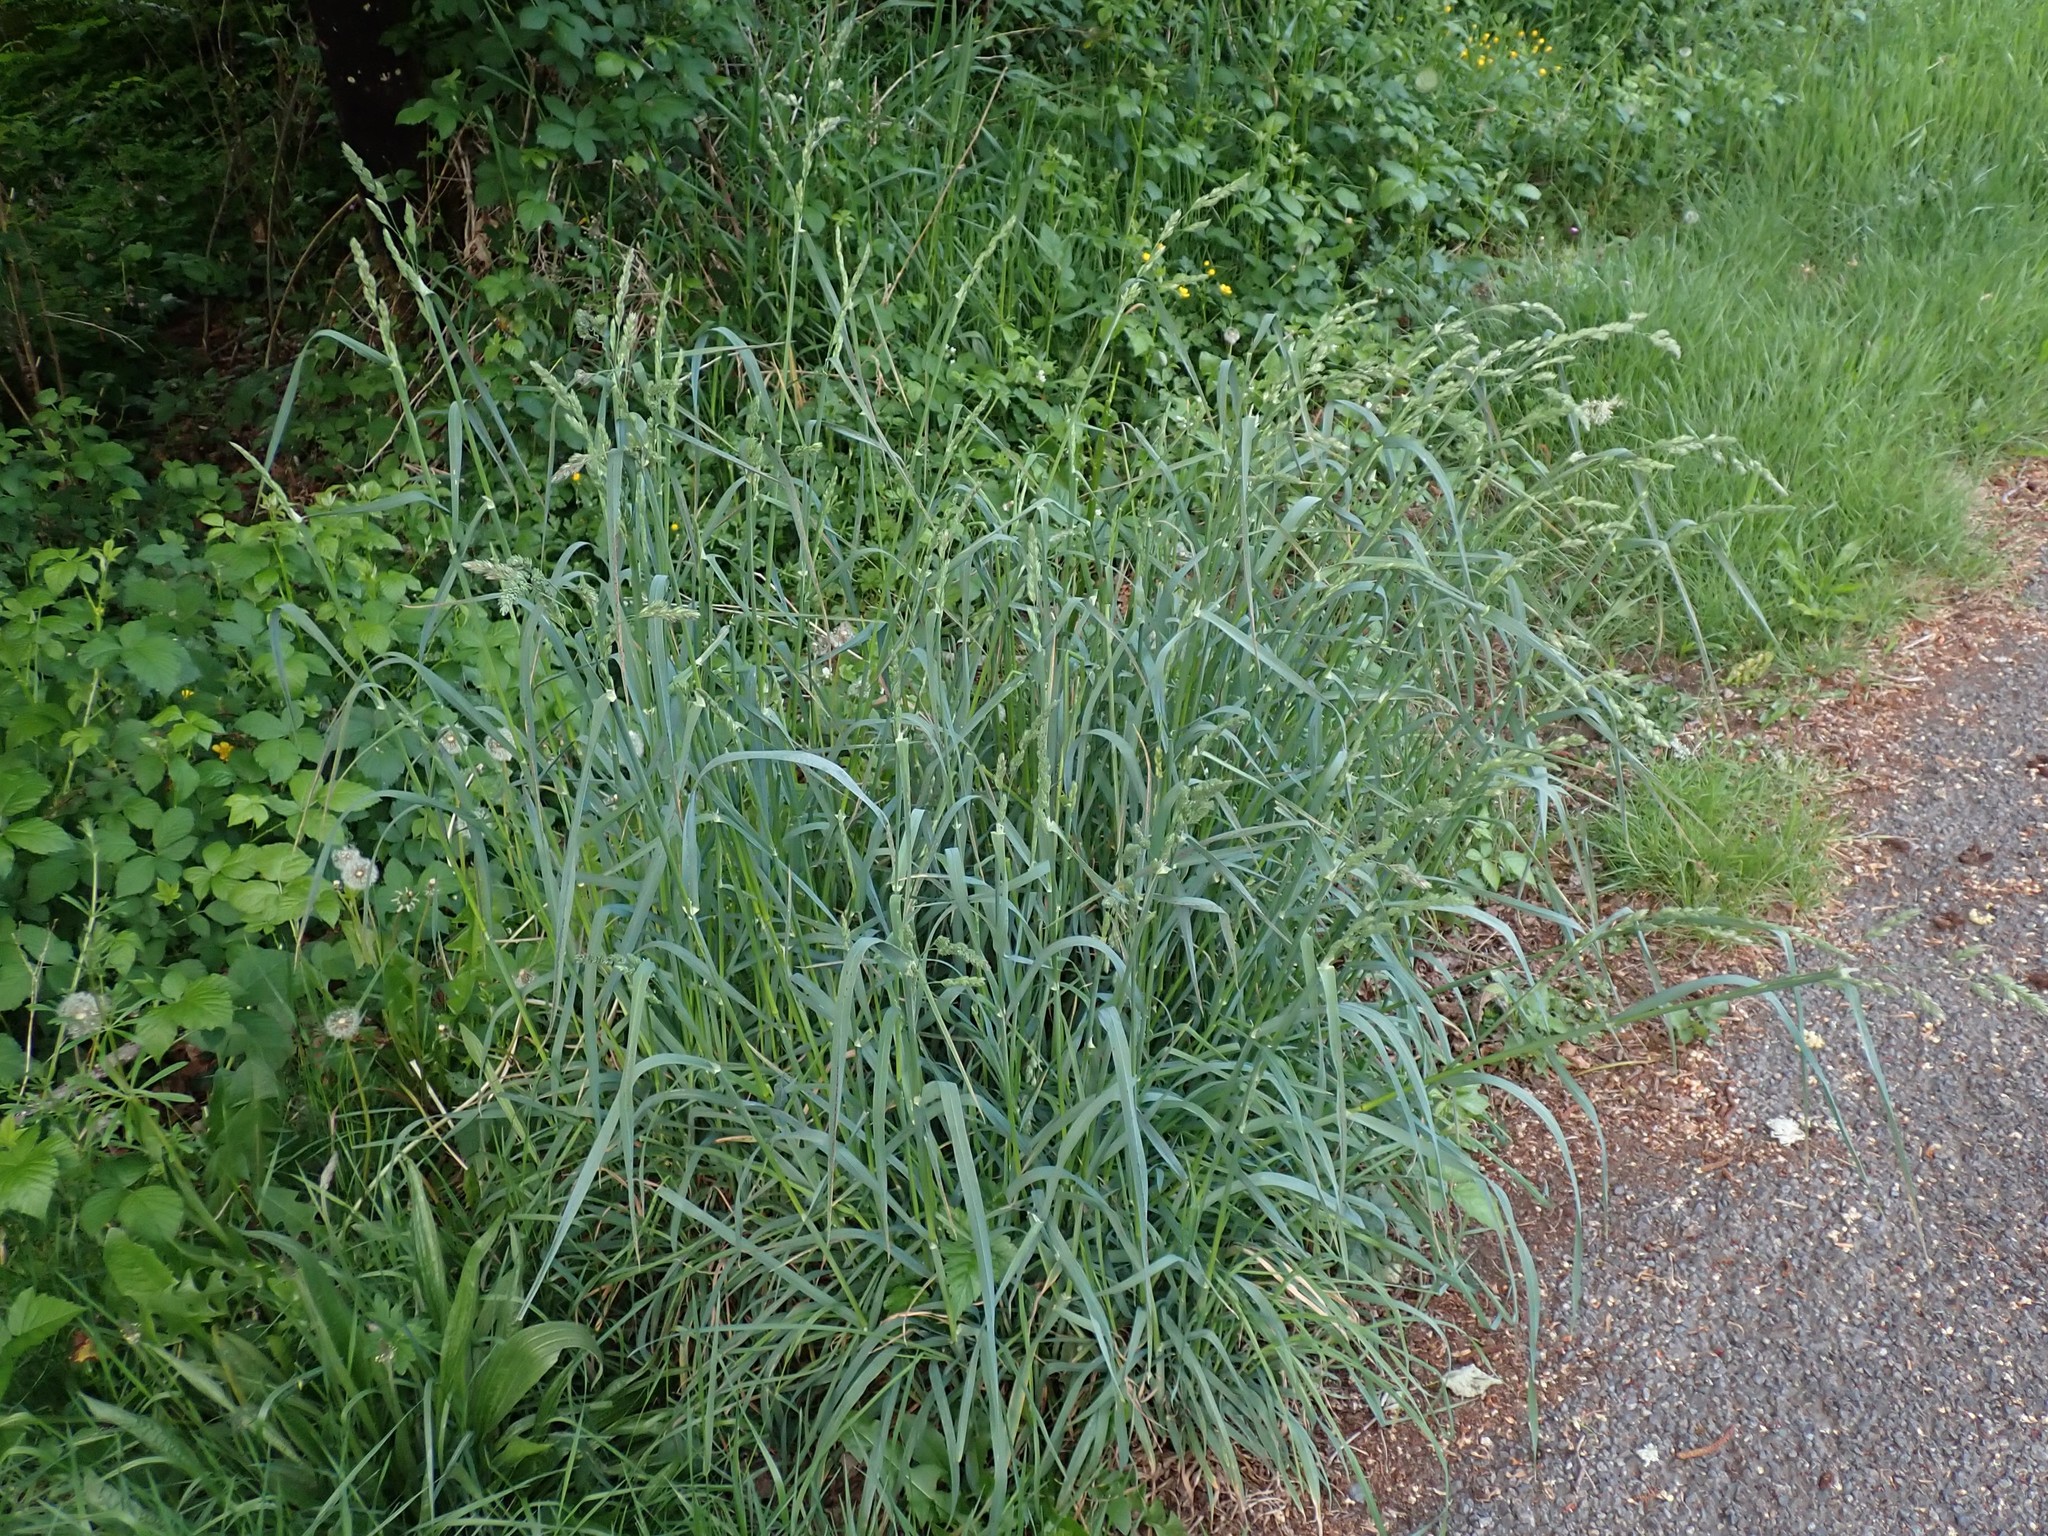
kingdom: Plantae
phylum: Tracheophyta
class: Liliopsida
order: Poales
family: Poaceae
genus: Dactylis
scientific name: Dactylis glomerata
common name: Orchardgrass
